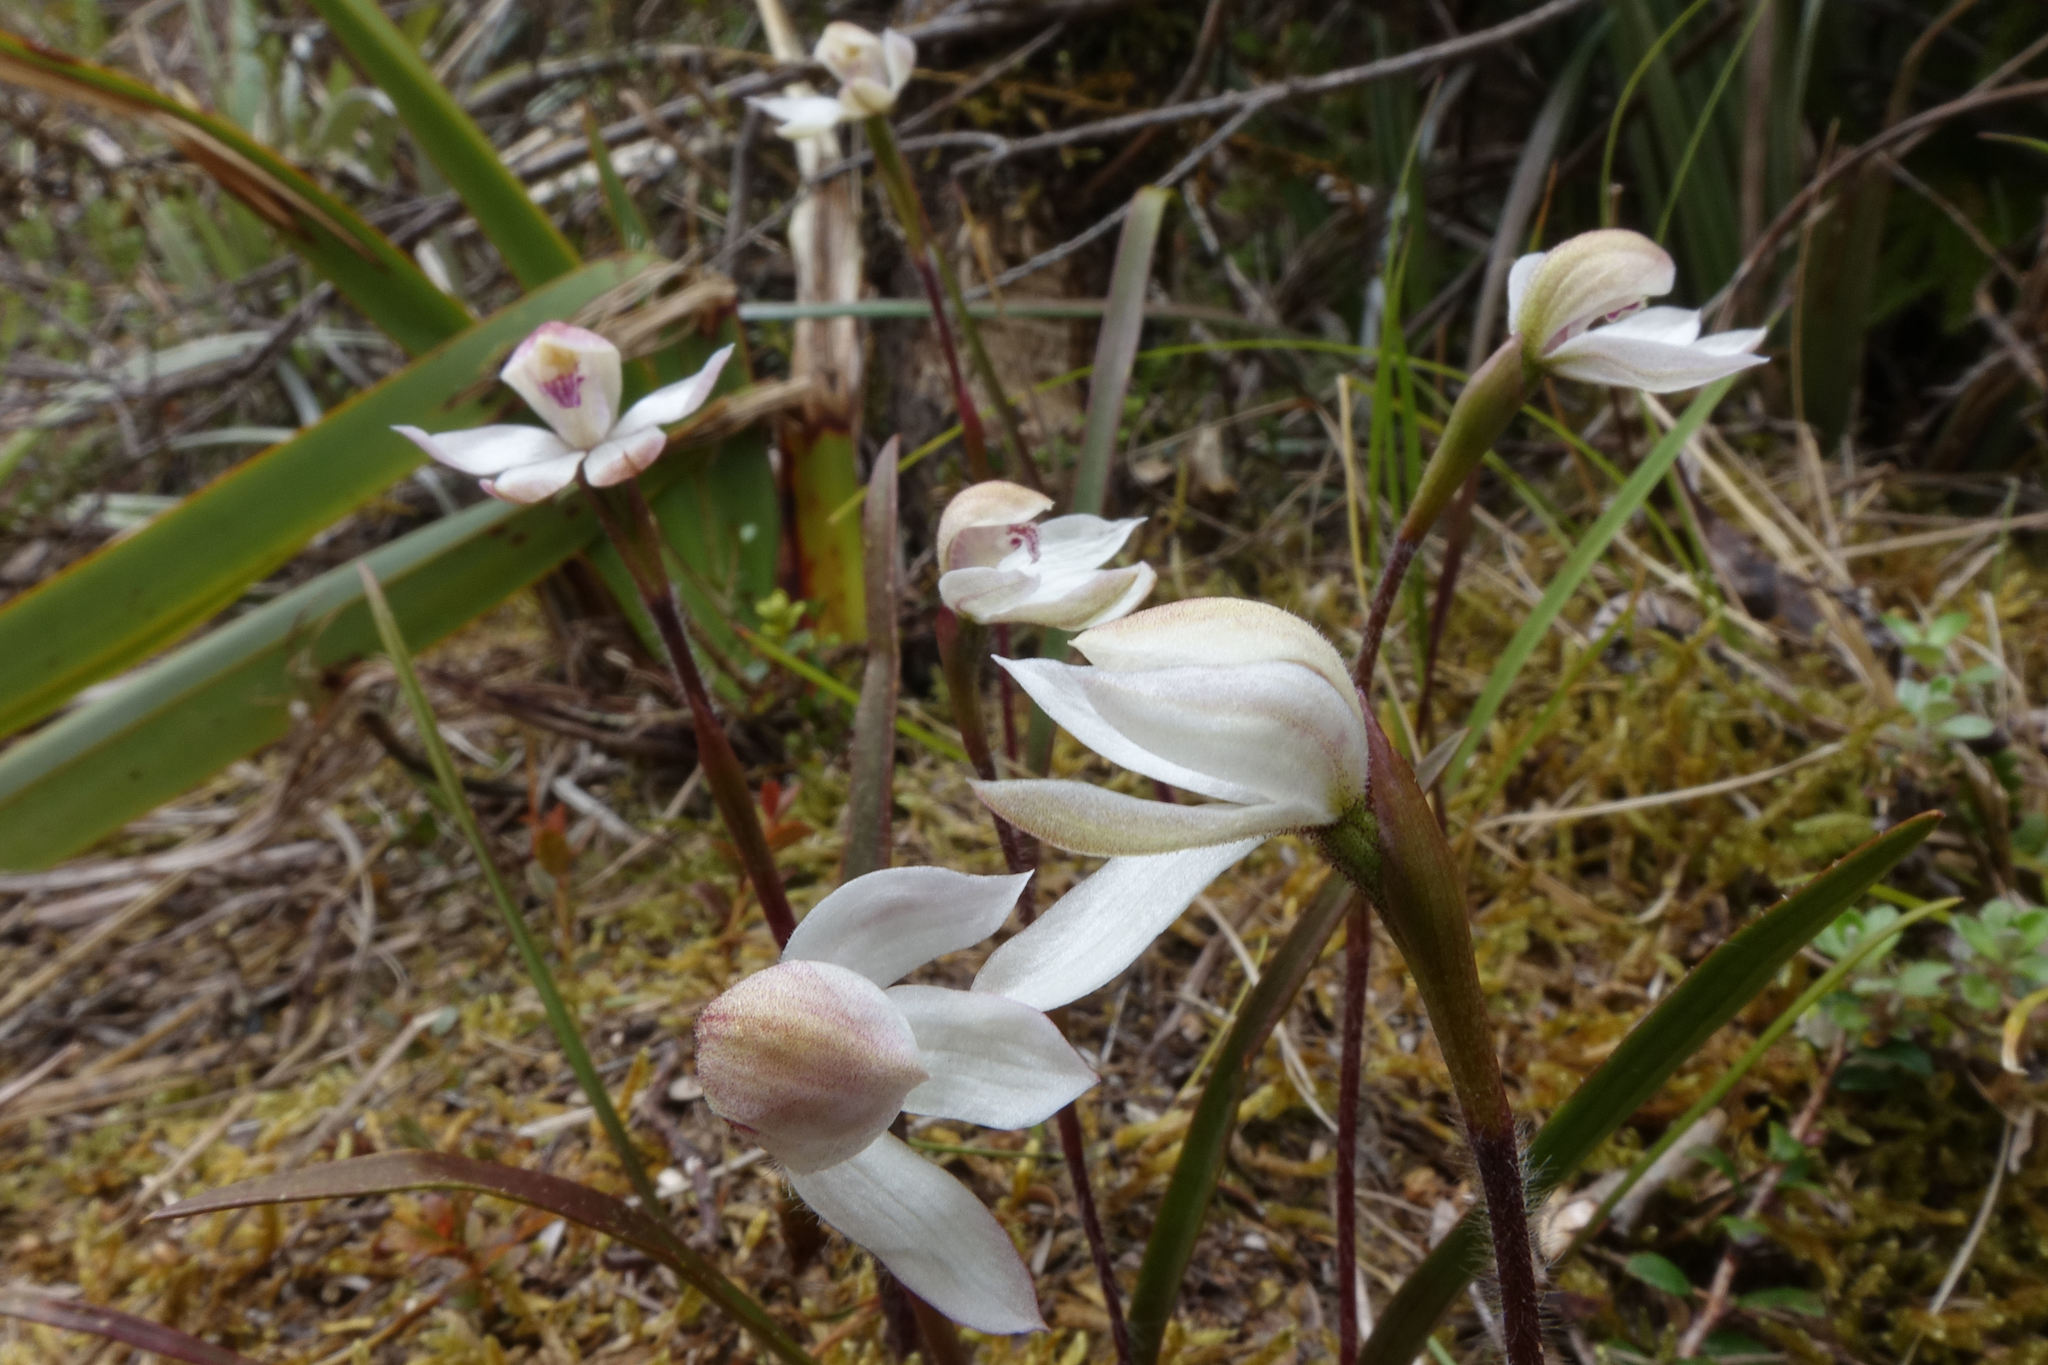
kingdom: Plantae
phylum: Tracheophyta
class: Liliopsida
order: Asparagales
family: Orchidaceae
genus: Caladenia
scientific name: Caladenia lyallii
